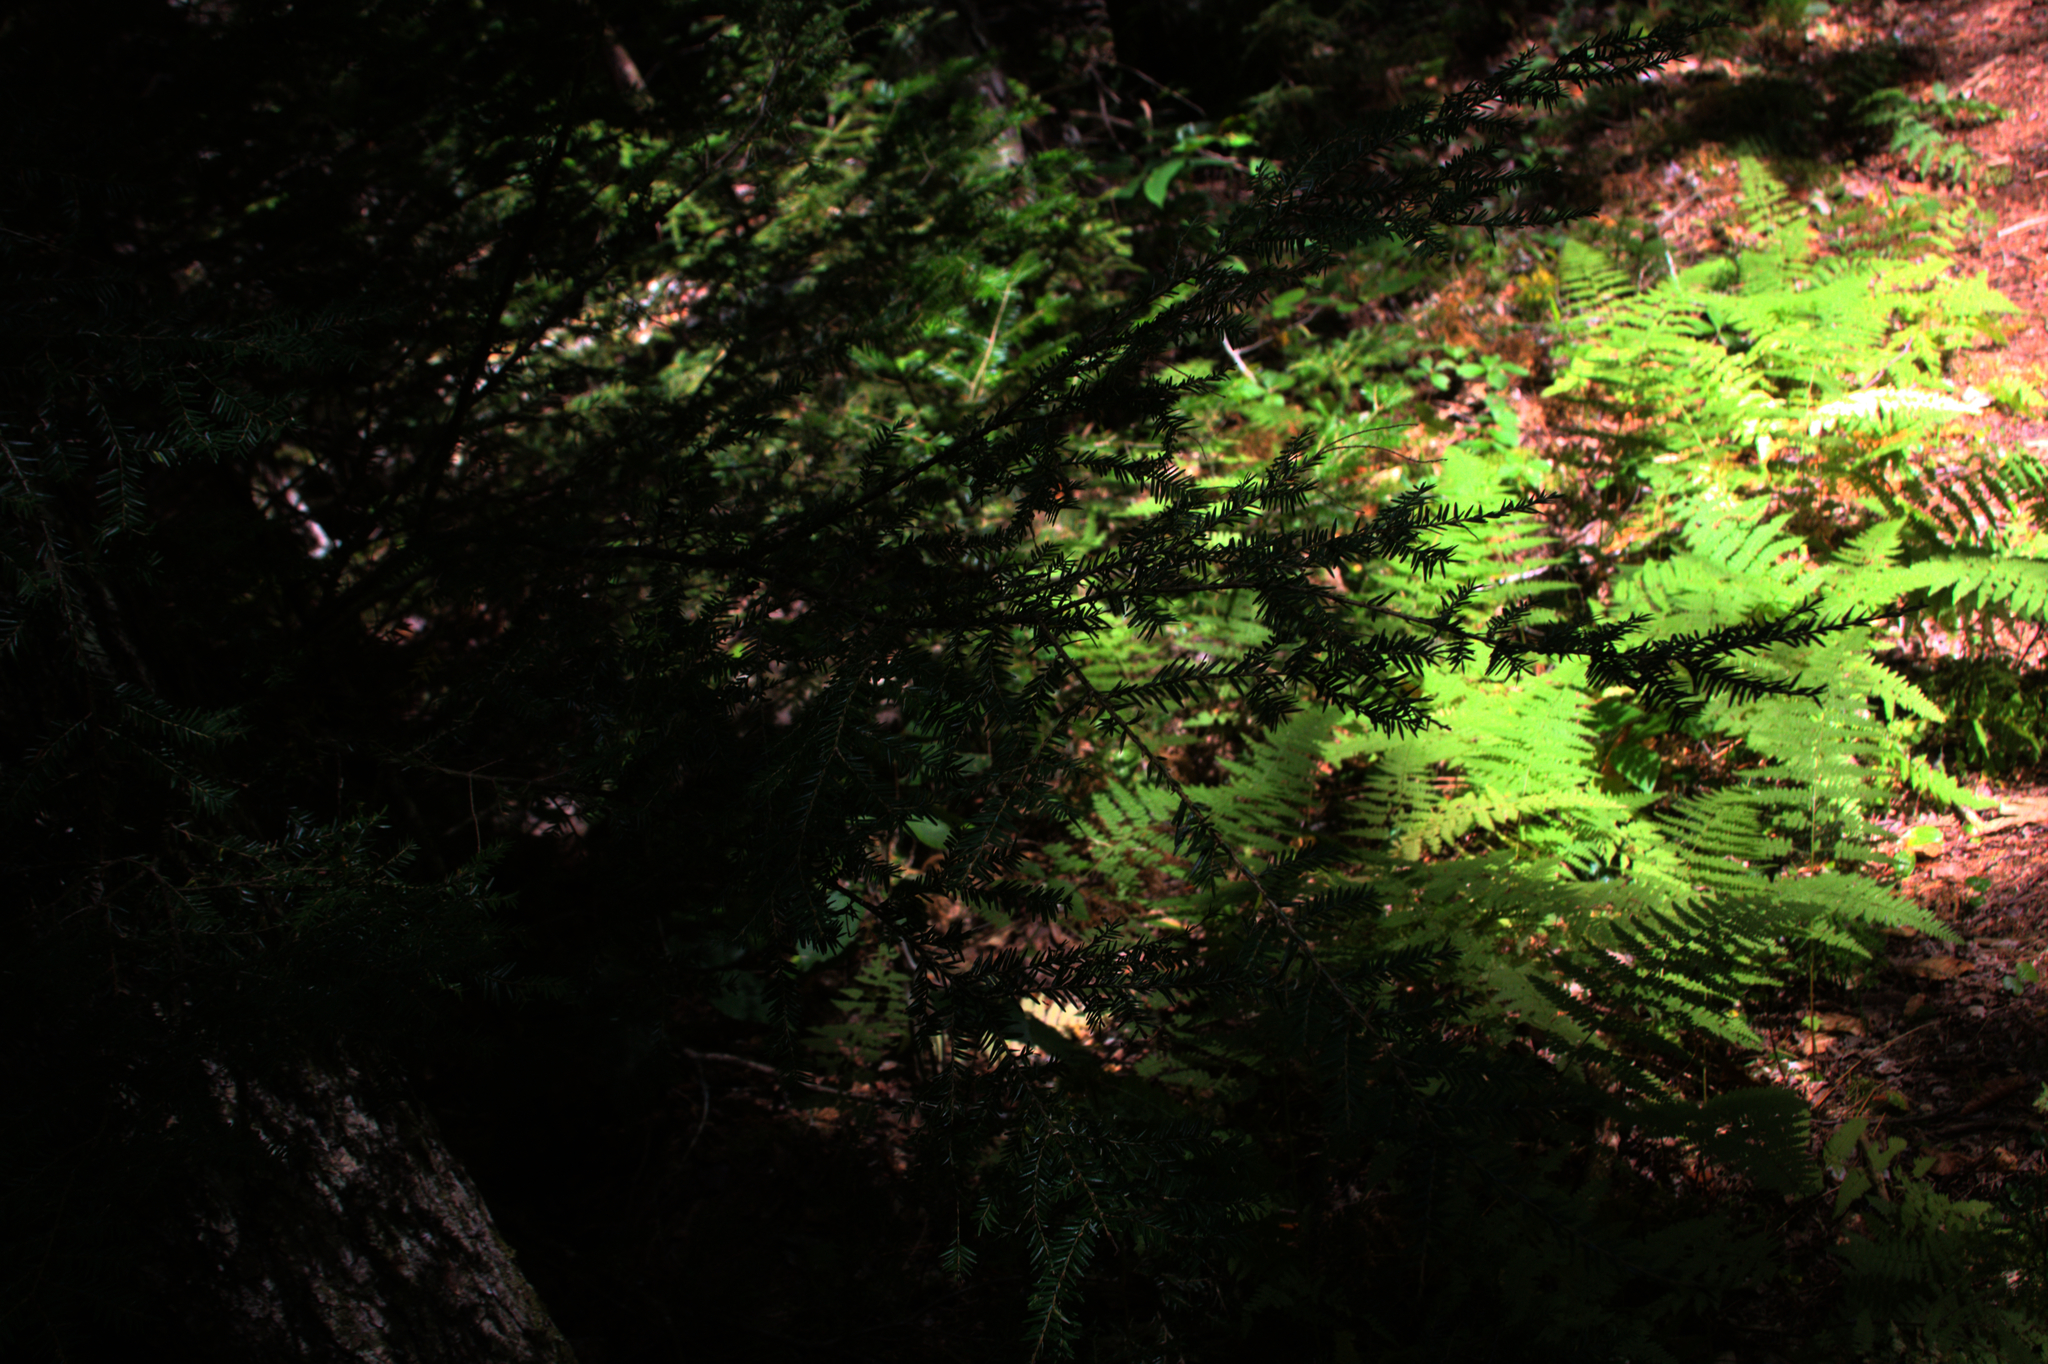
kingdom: Plantae
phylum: Tracheophyta
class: Pinopsida
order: Pinales
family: Pinaceae
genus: Tsuga
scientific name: Tsuga canadensis
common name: Eastern hemlock
